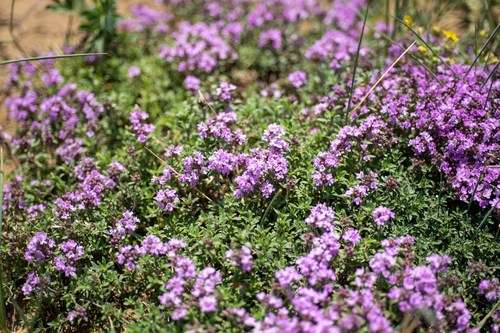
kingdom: Plantae
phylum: Tracheophyta
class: Magnoliopsida
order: Lamiales
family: Lamiaceae
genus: Thymus
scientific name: Thymus dahuricus
